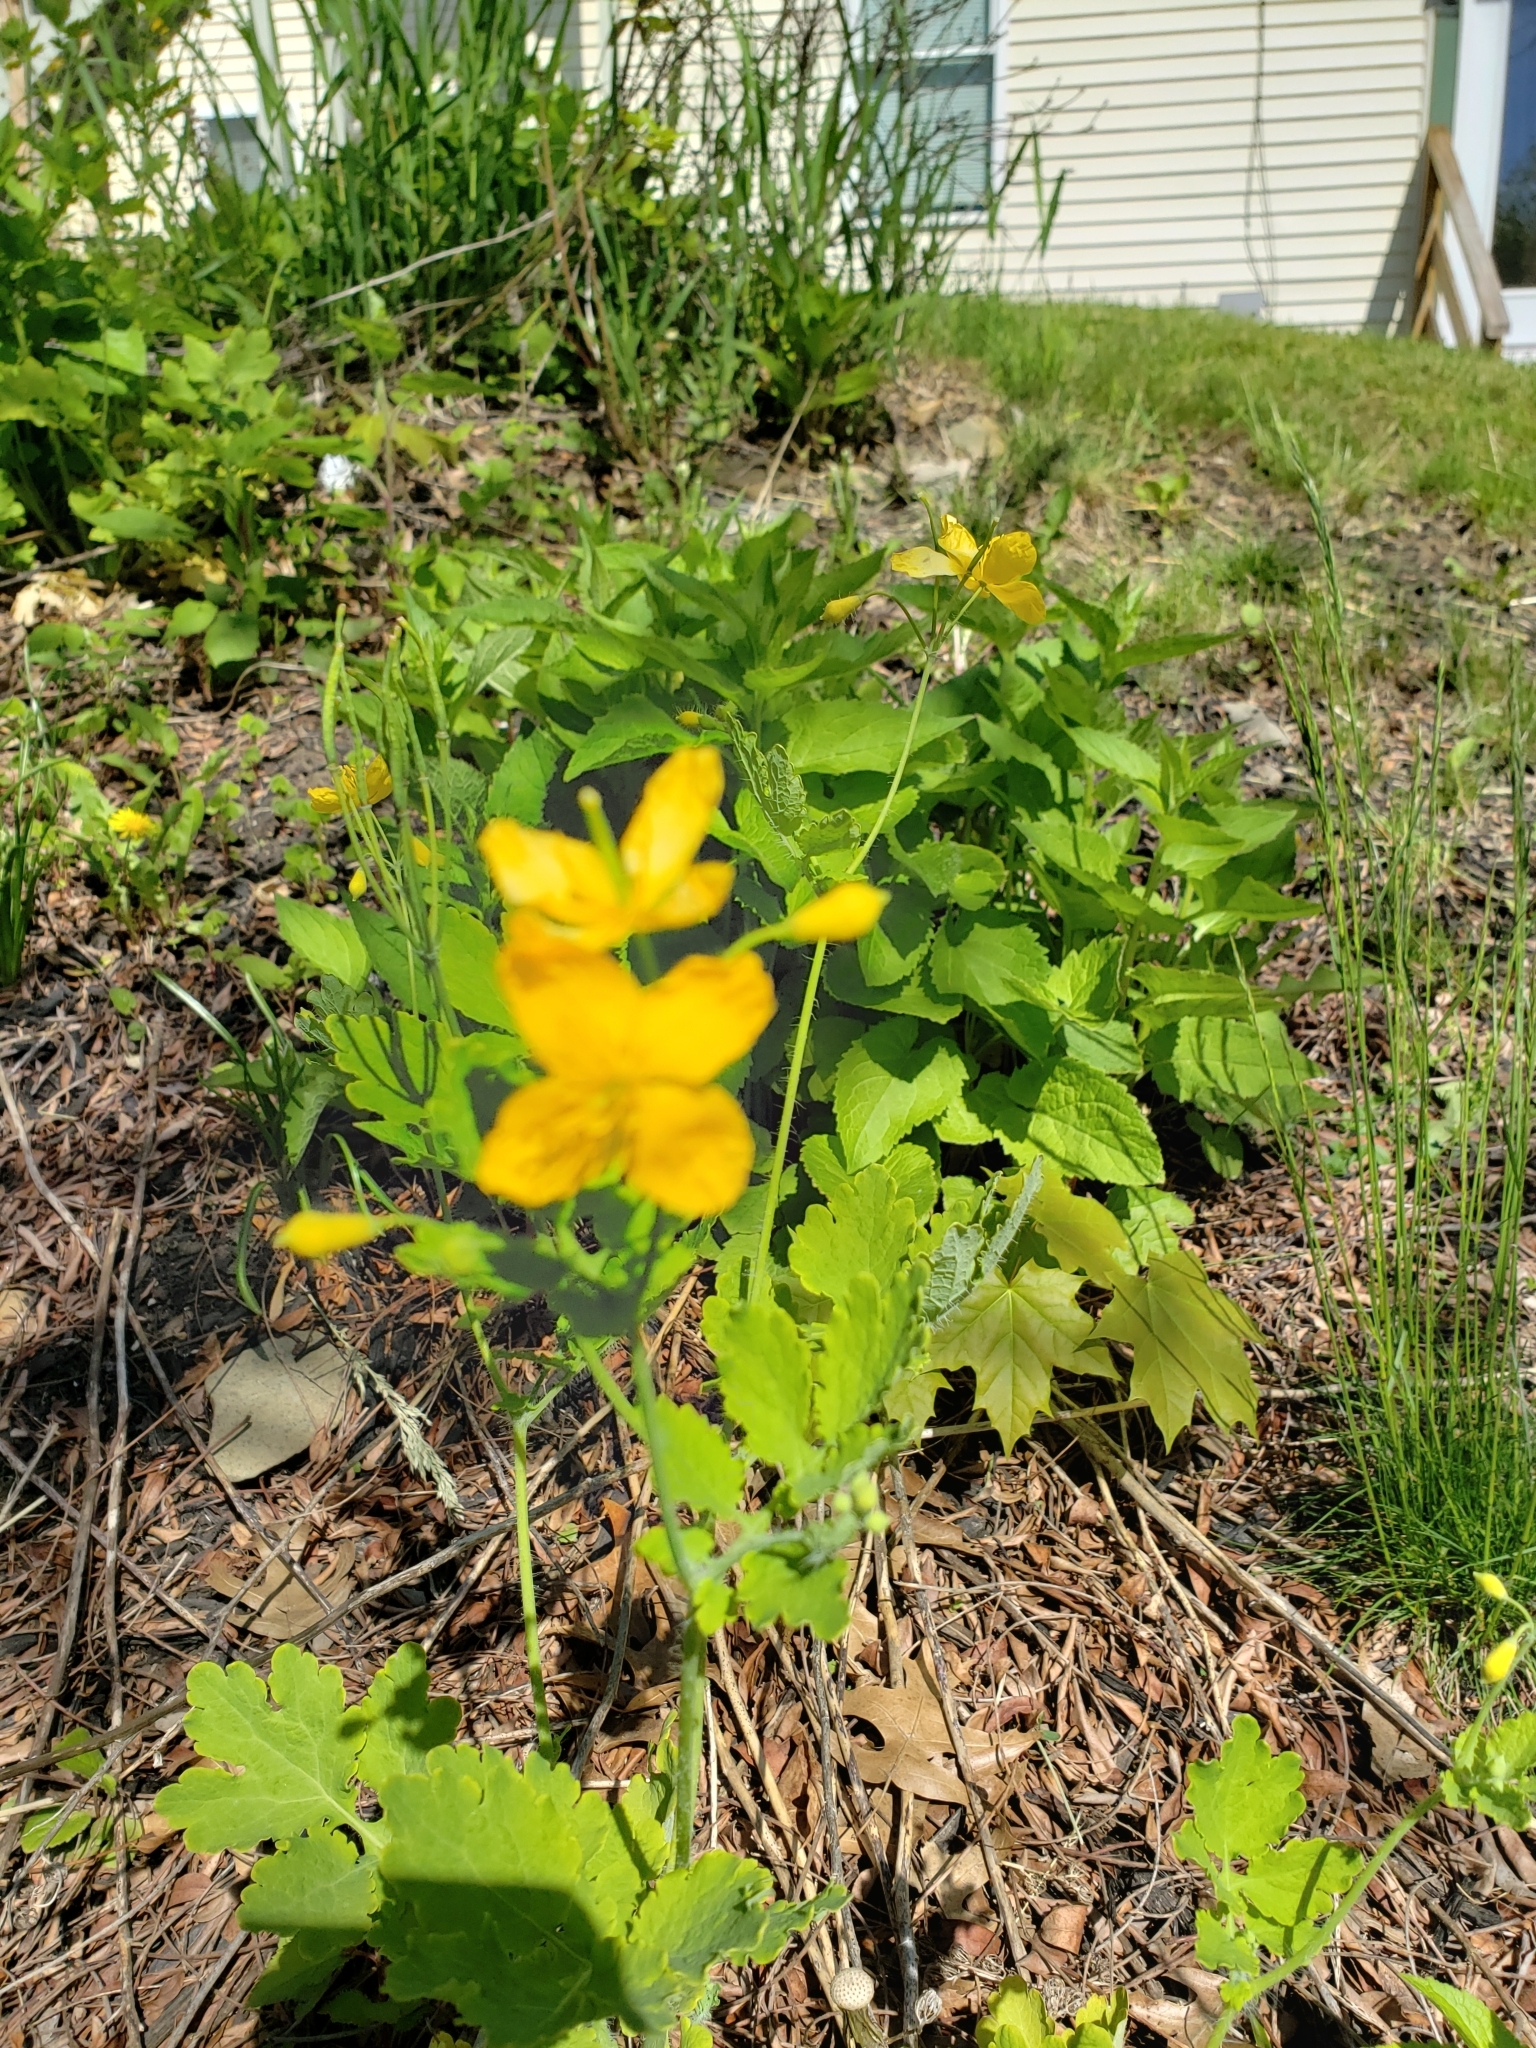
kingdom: Plantae
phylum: Tracheophyta
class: Magnoliopsida
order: Ranunculales
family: Papaveraceae
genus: Chelidonium
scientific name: Chelidonium majus
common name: Greater celandine
